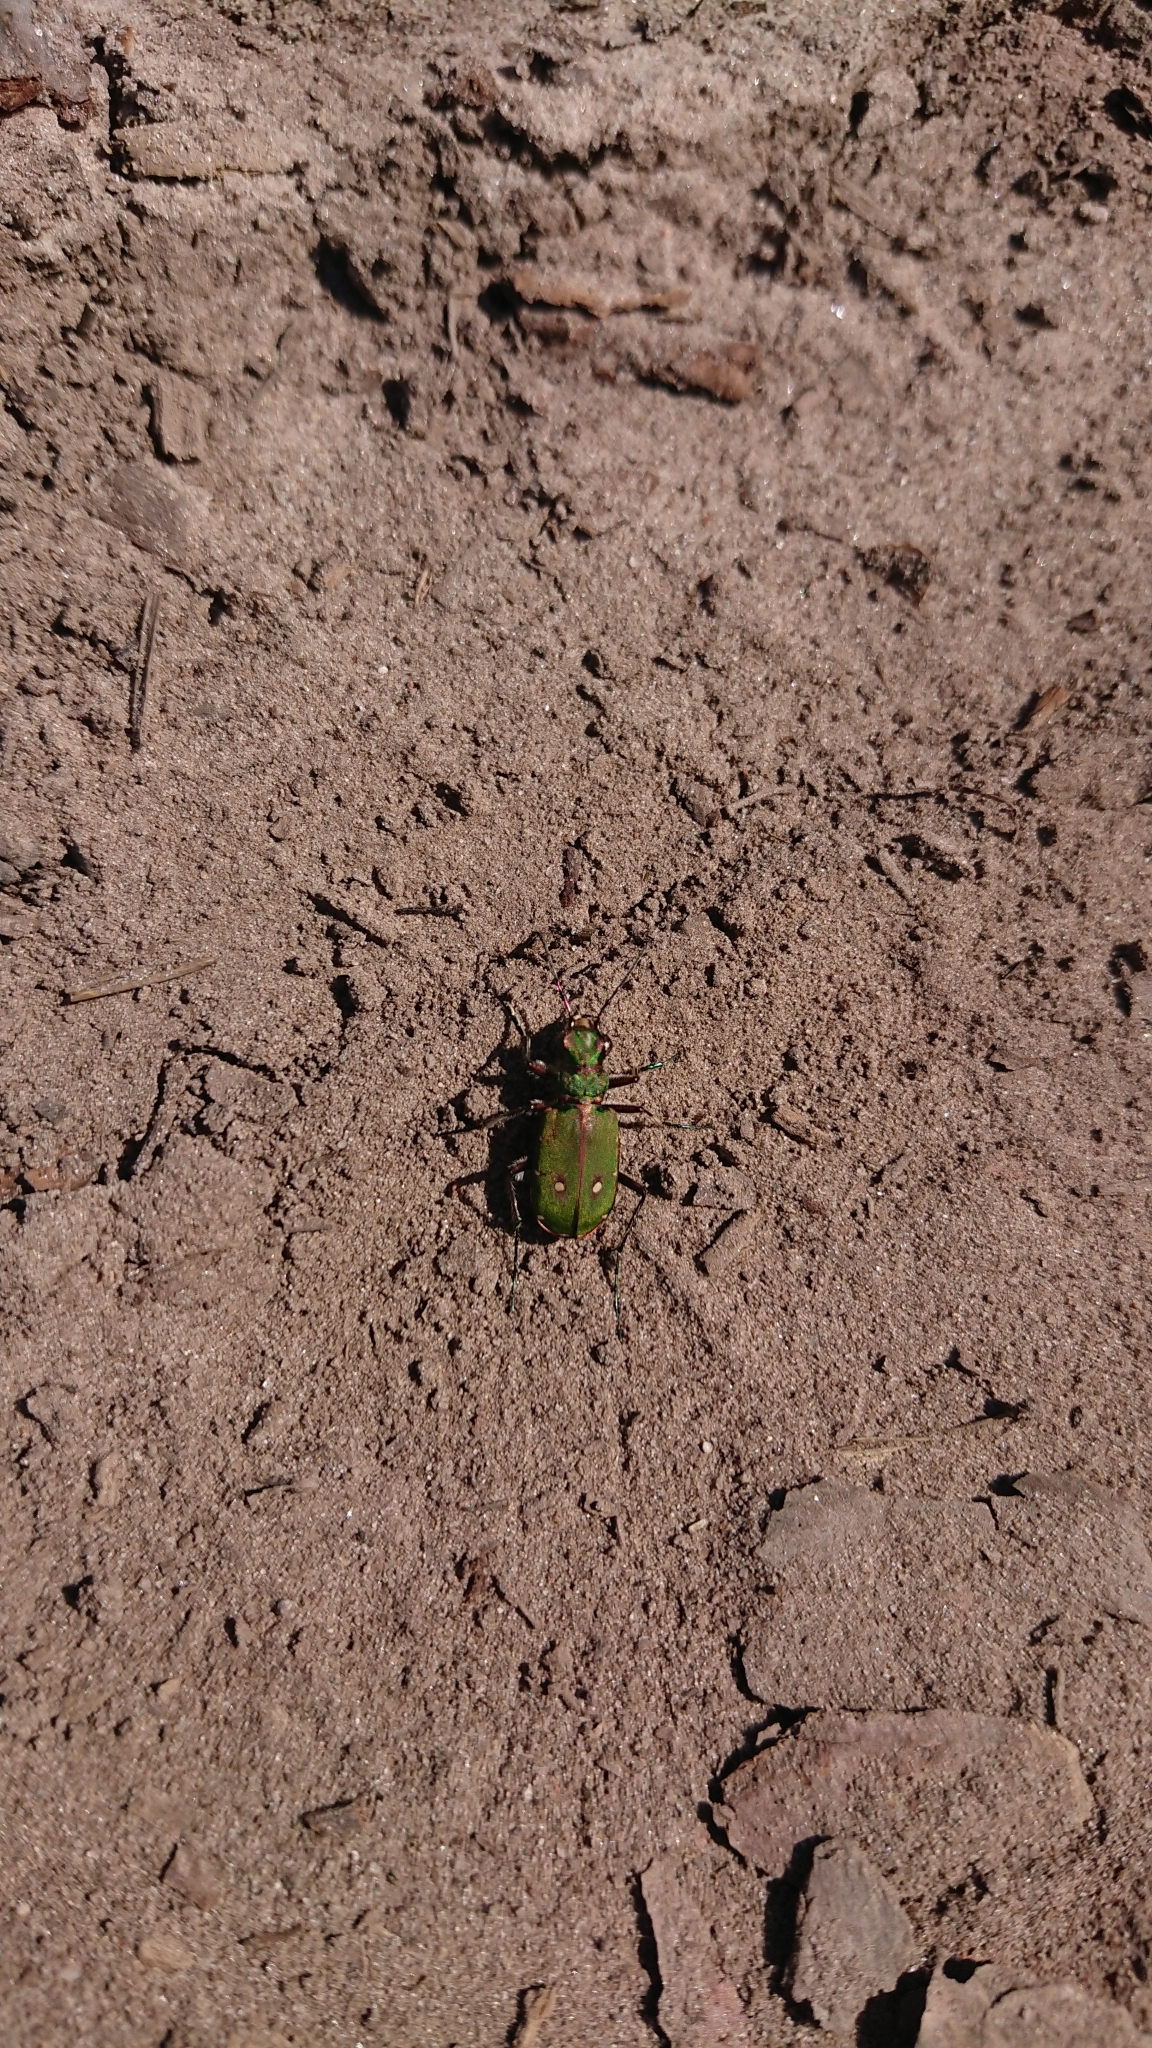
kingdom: Animalia
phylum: Arthropoda
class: Insecta
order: Coleoptera
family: Carabidae
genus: Cicindela
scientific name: Cicindela campestris
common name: Common tiger beetle
